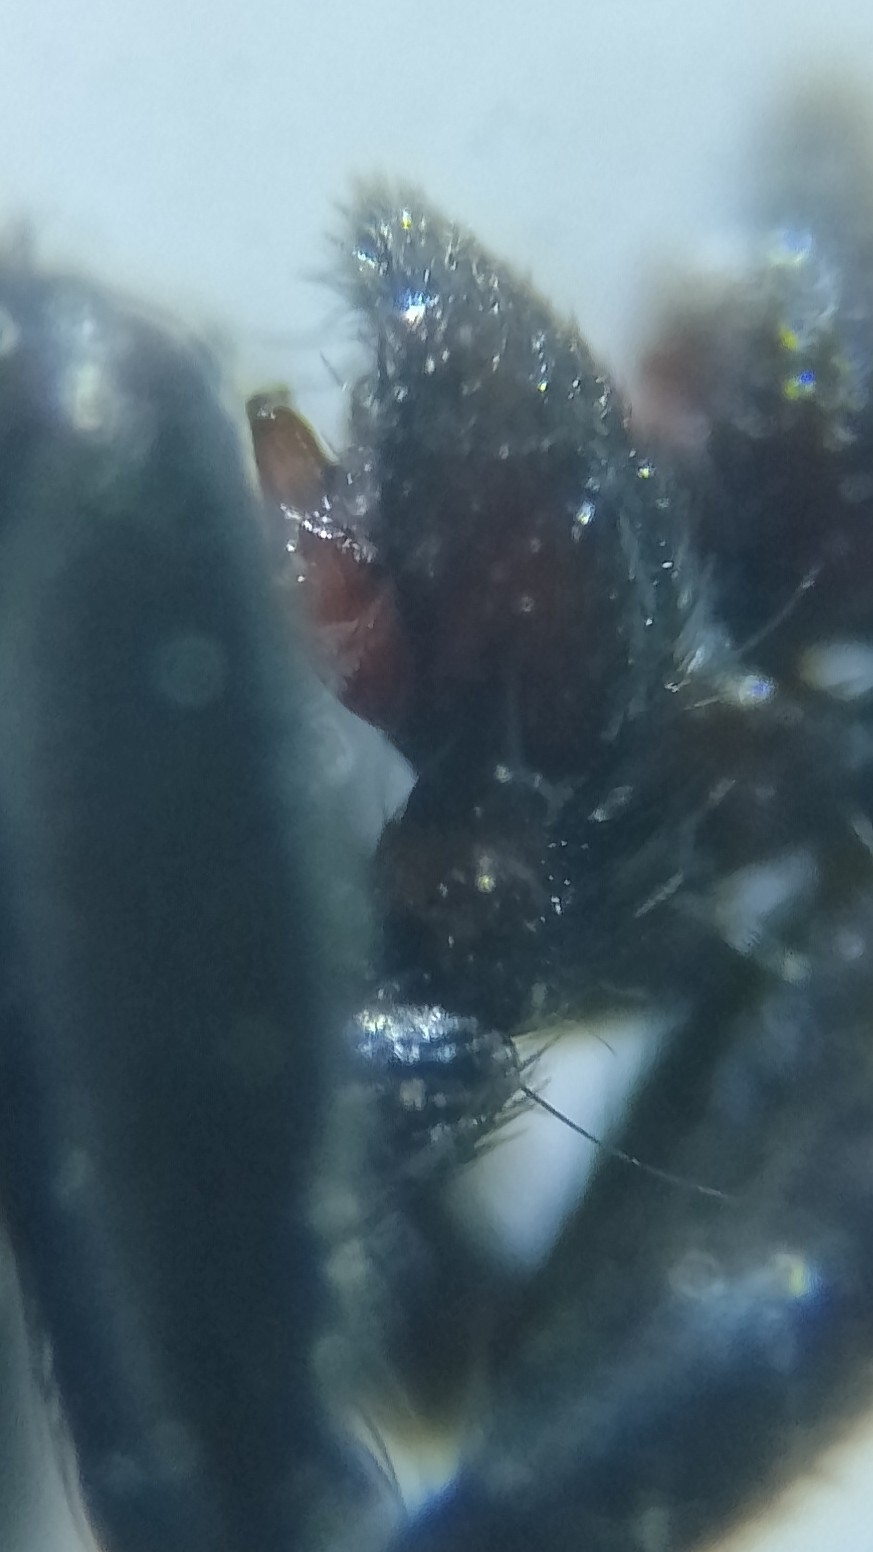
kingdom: Animalia
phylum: Arthropoda
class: Arachnida
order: Araneae
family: Gnaphosidae
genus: Drassyllus
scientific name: Drassyllus pusillus
